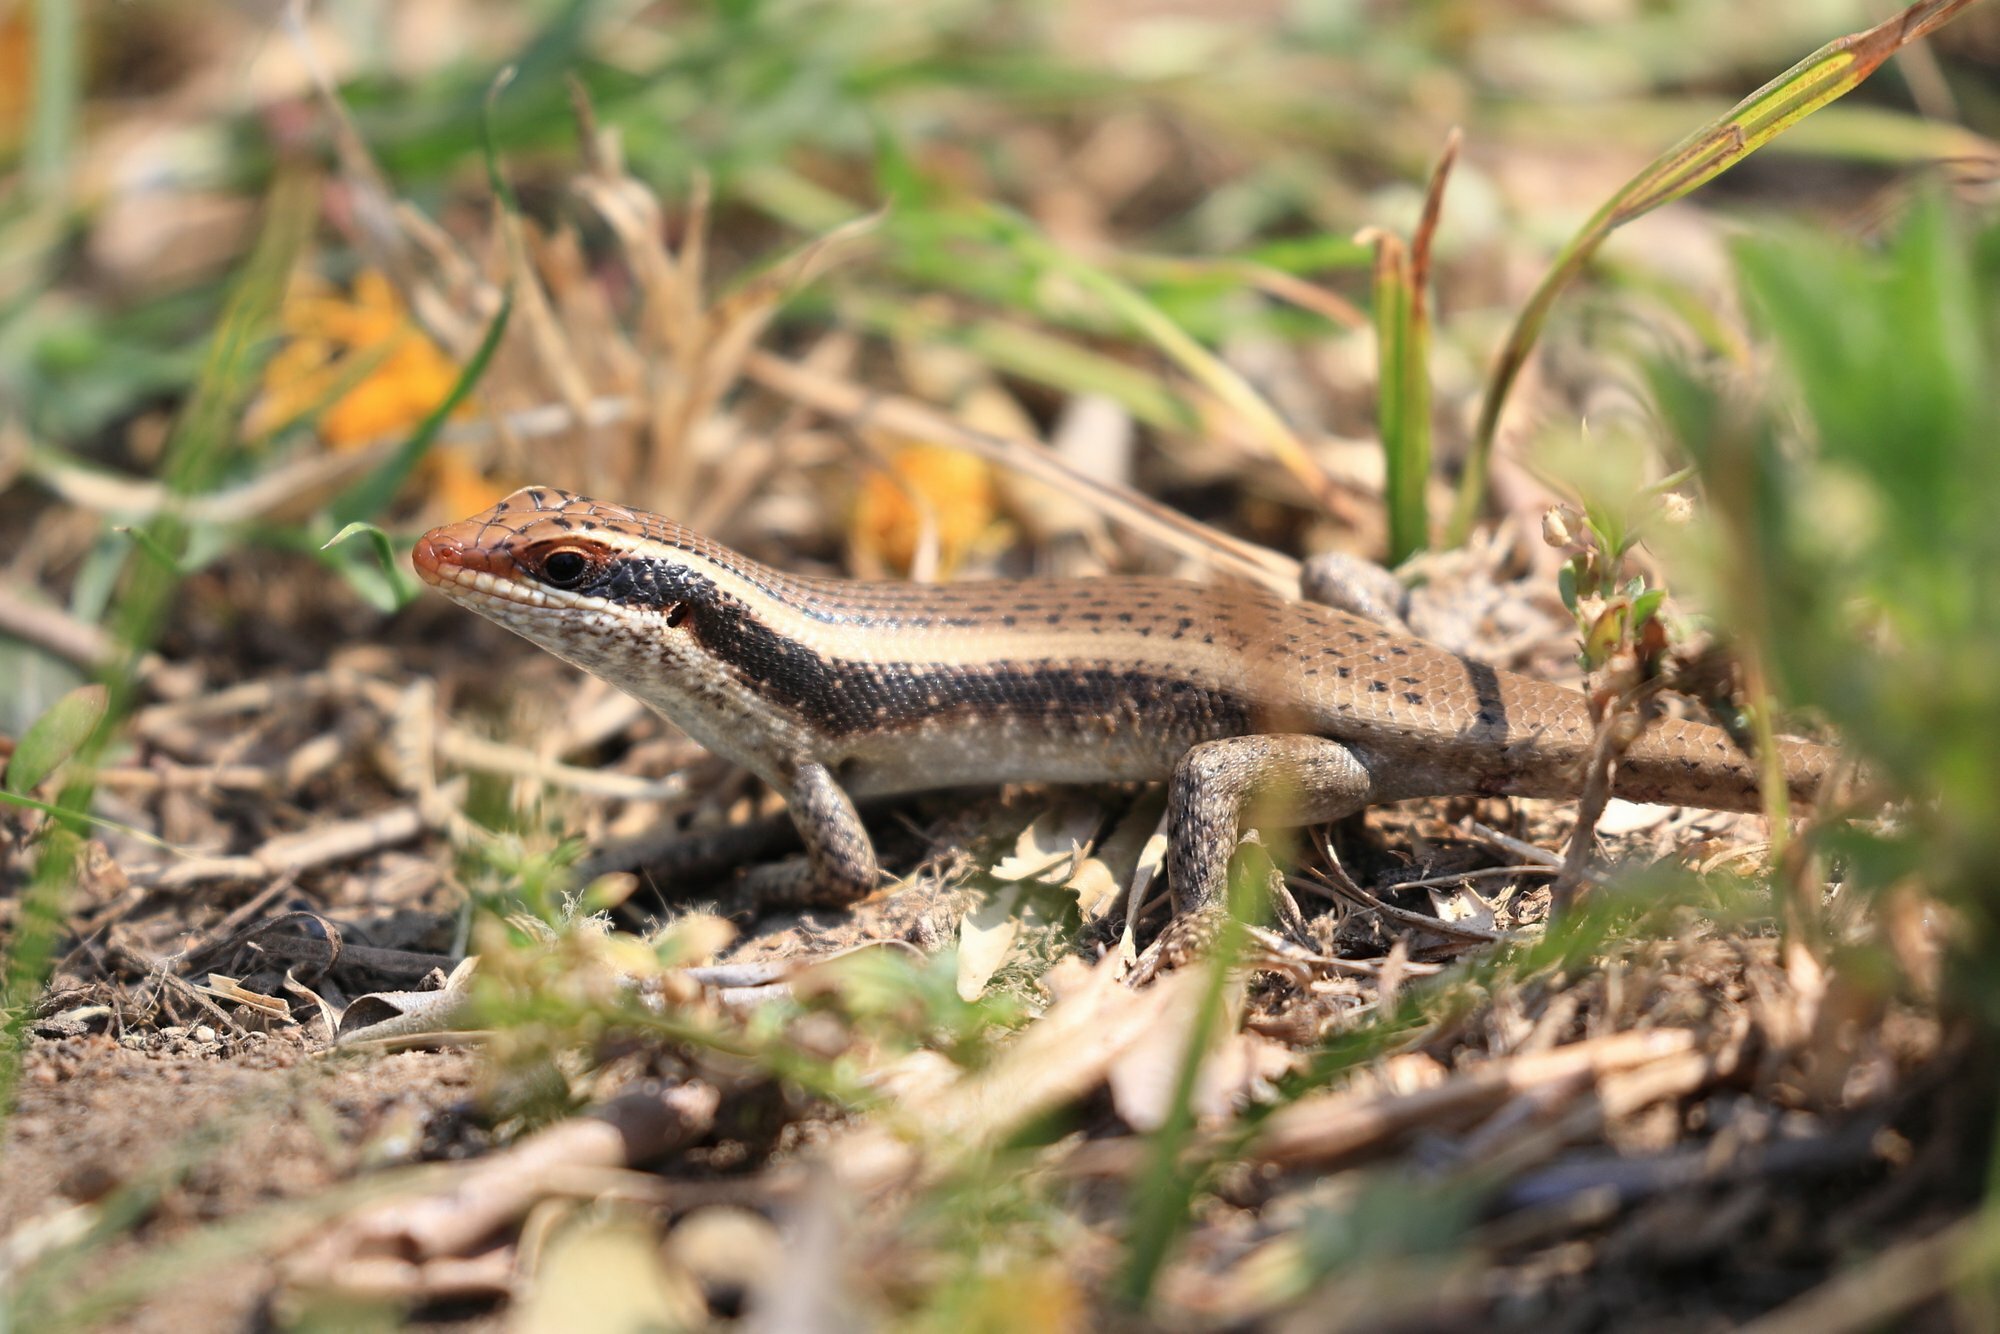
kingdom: Animalia
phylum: Chordata
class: Squamata
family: Scincidae
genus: Trachylepis
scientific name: Trachylepis wahlbergii
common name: Wahlberg’s striped skink
